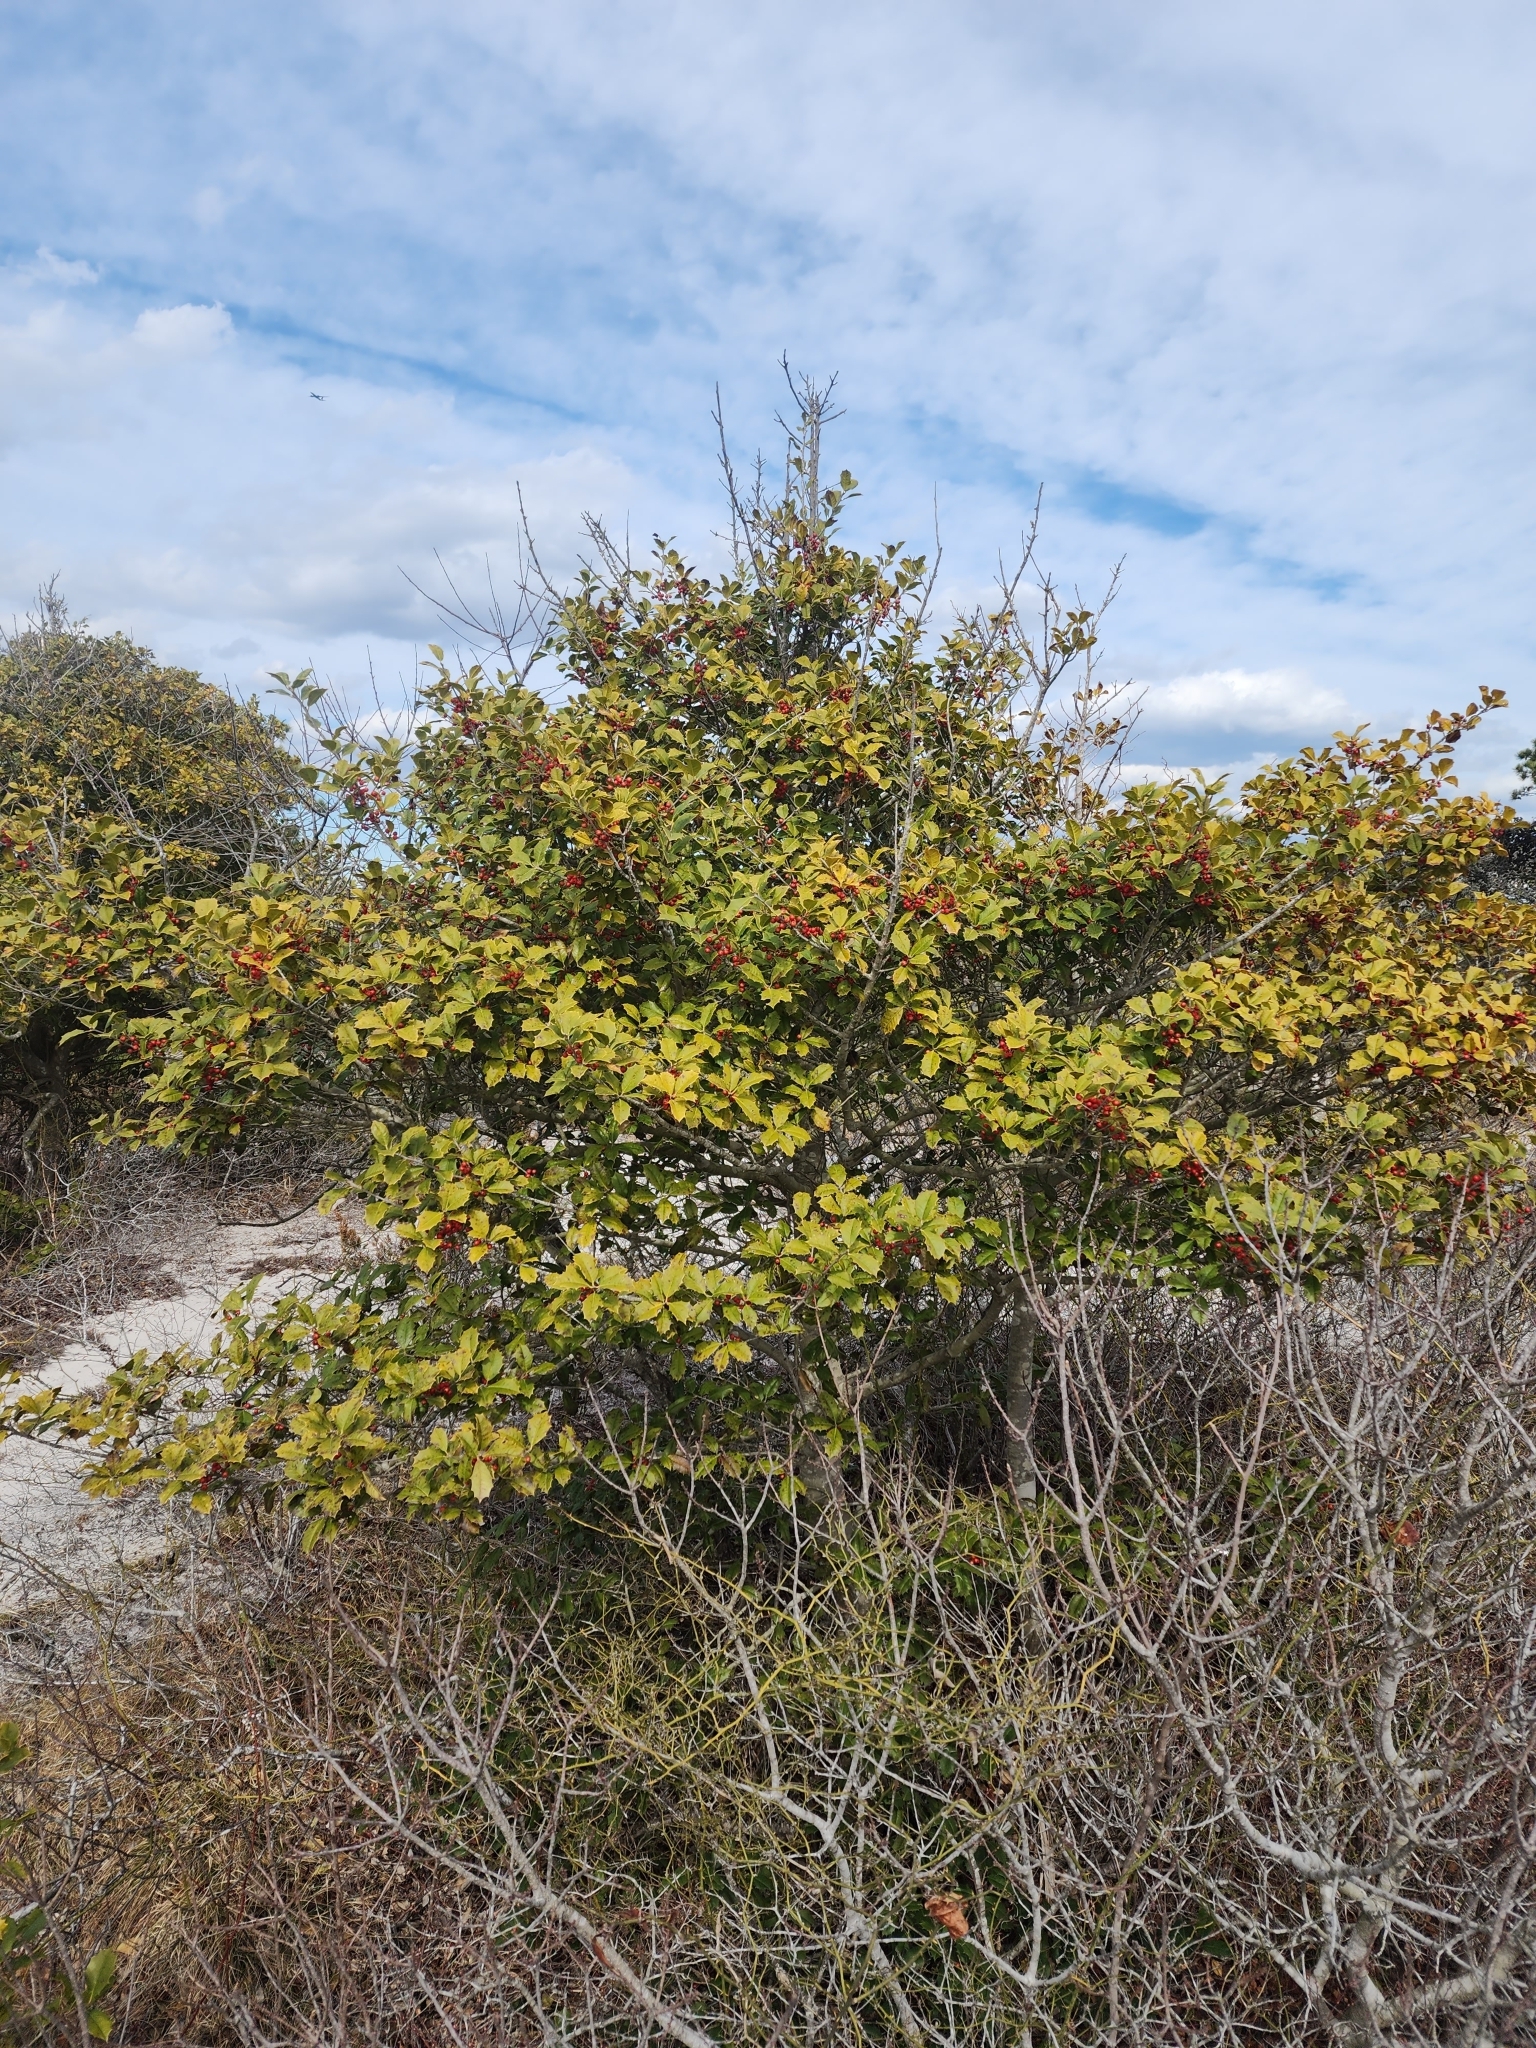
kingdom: Plantae
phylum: Tracheophyta
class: Magnoliopsida
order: Aquifoliales
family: Aquifoliaceae
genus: Ilex
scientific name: Ilex opaca
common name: American holly
